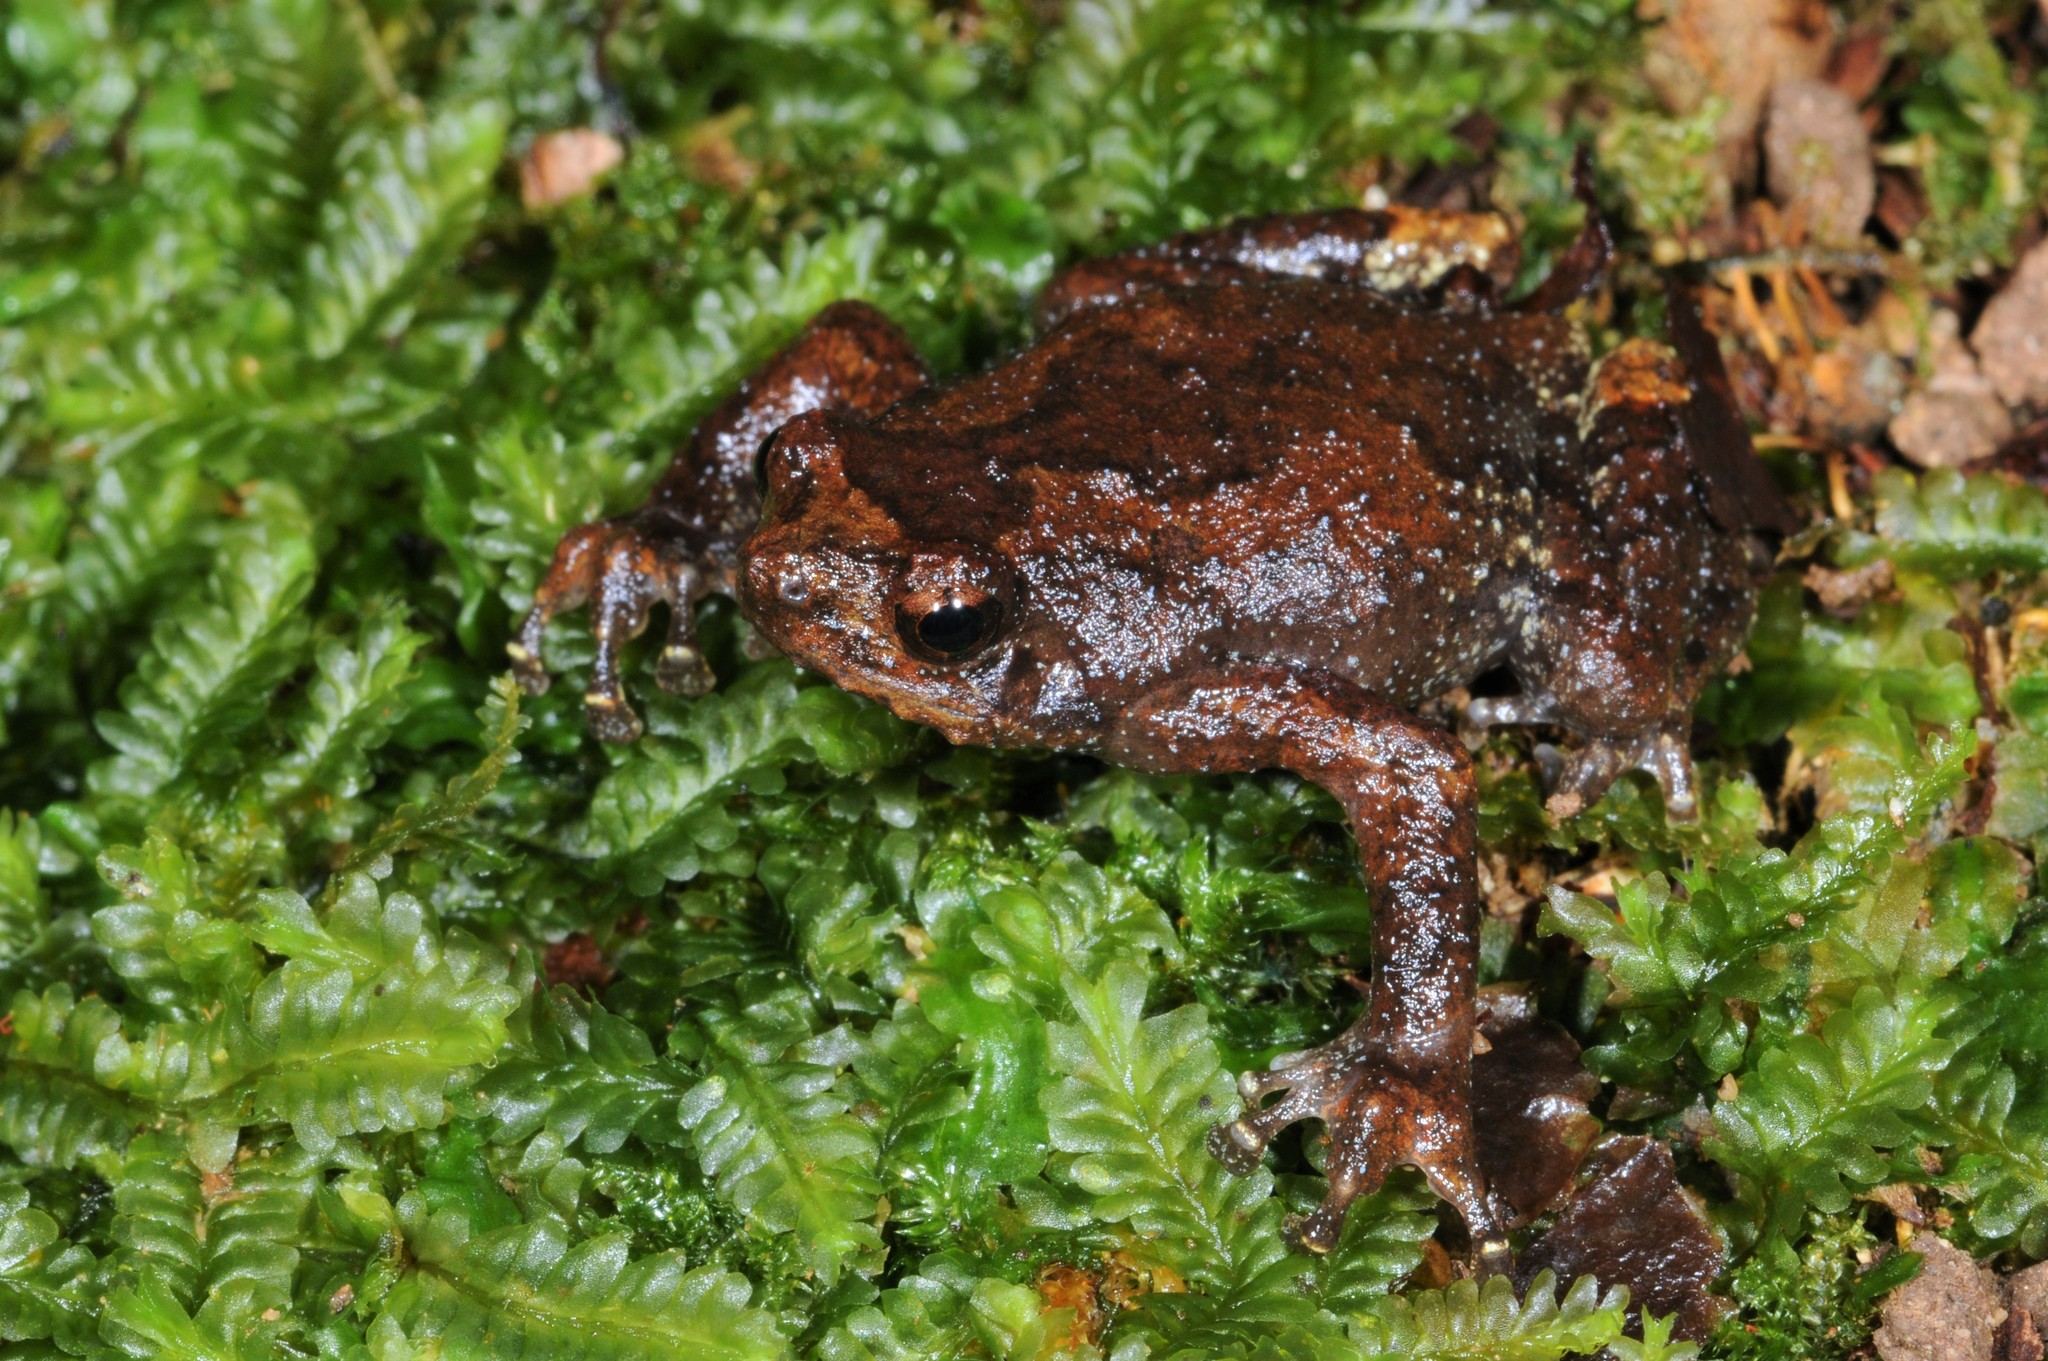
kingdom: Animalia
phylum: Chordata
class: Amphibia
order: Anura
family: Microhylidae
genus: Metaphrynella
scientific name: Metaphrynella pollicaris
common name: Malaysian treehole frog
